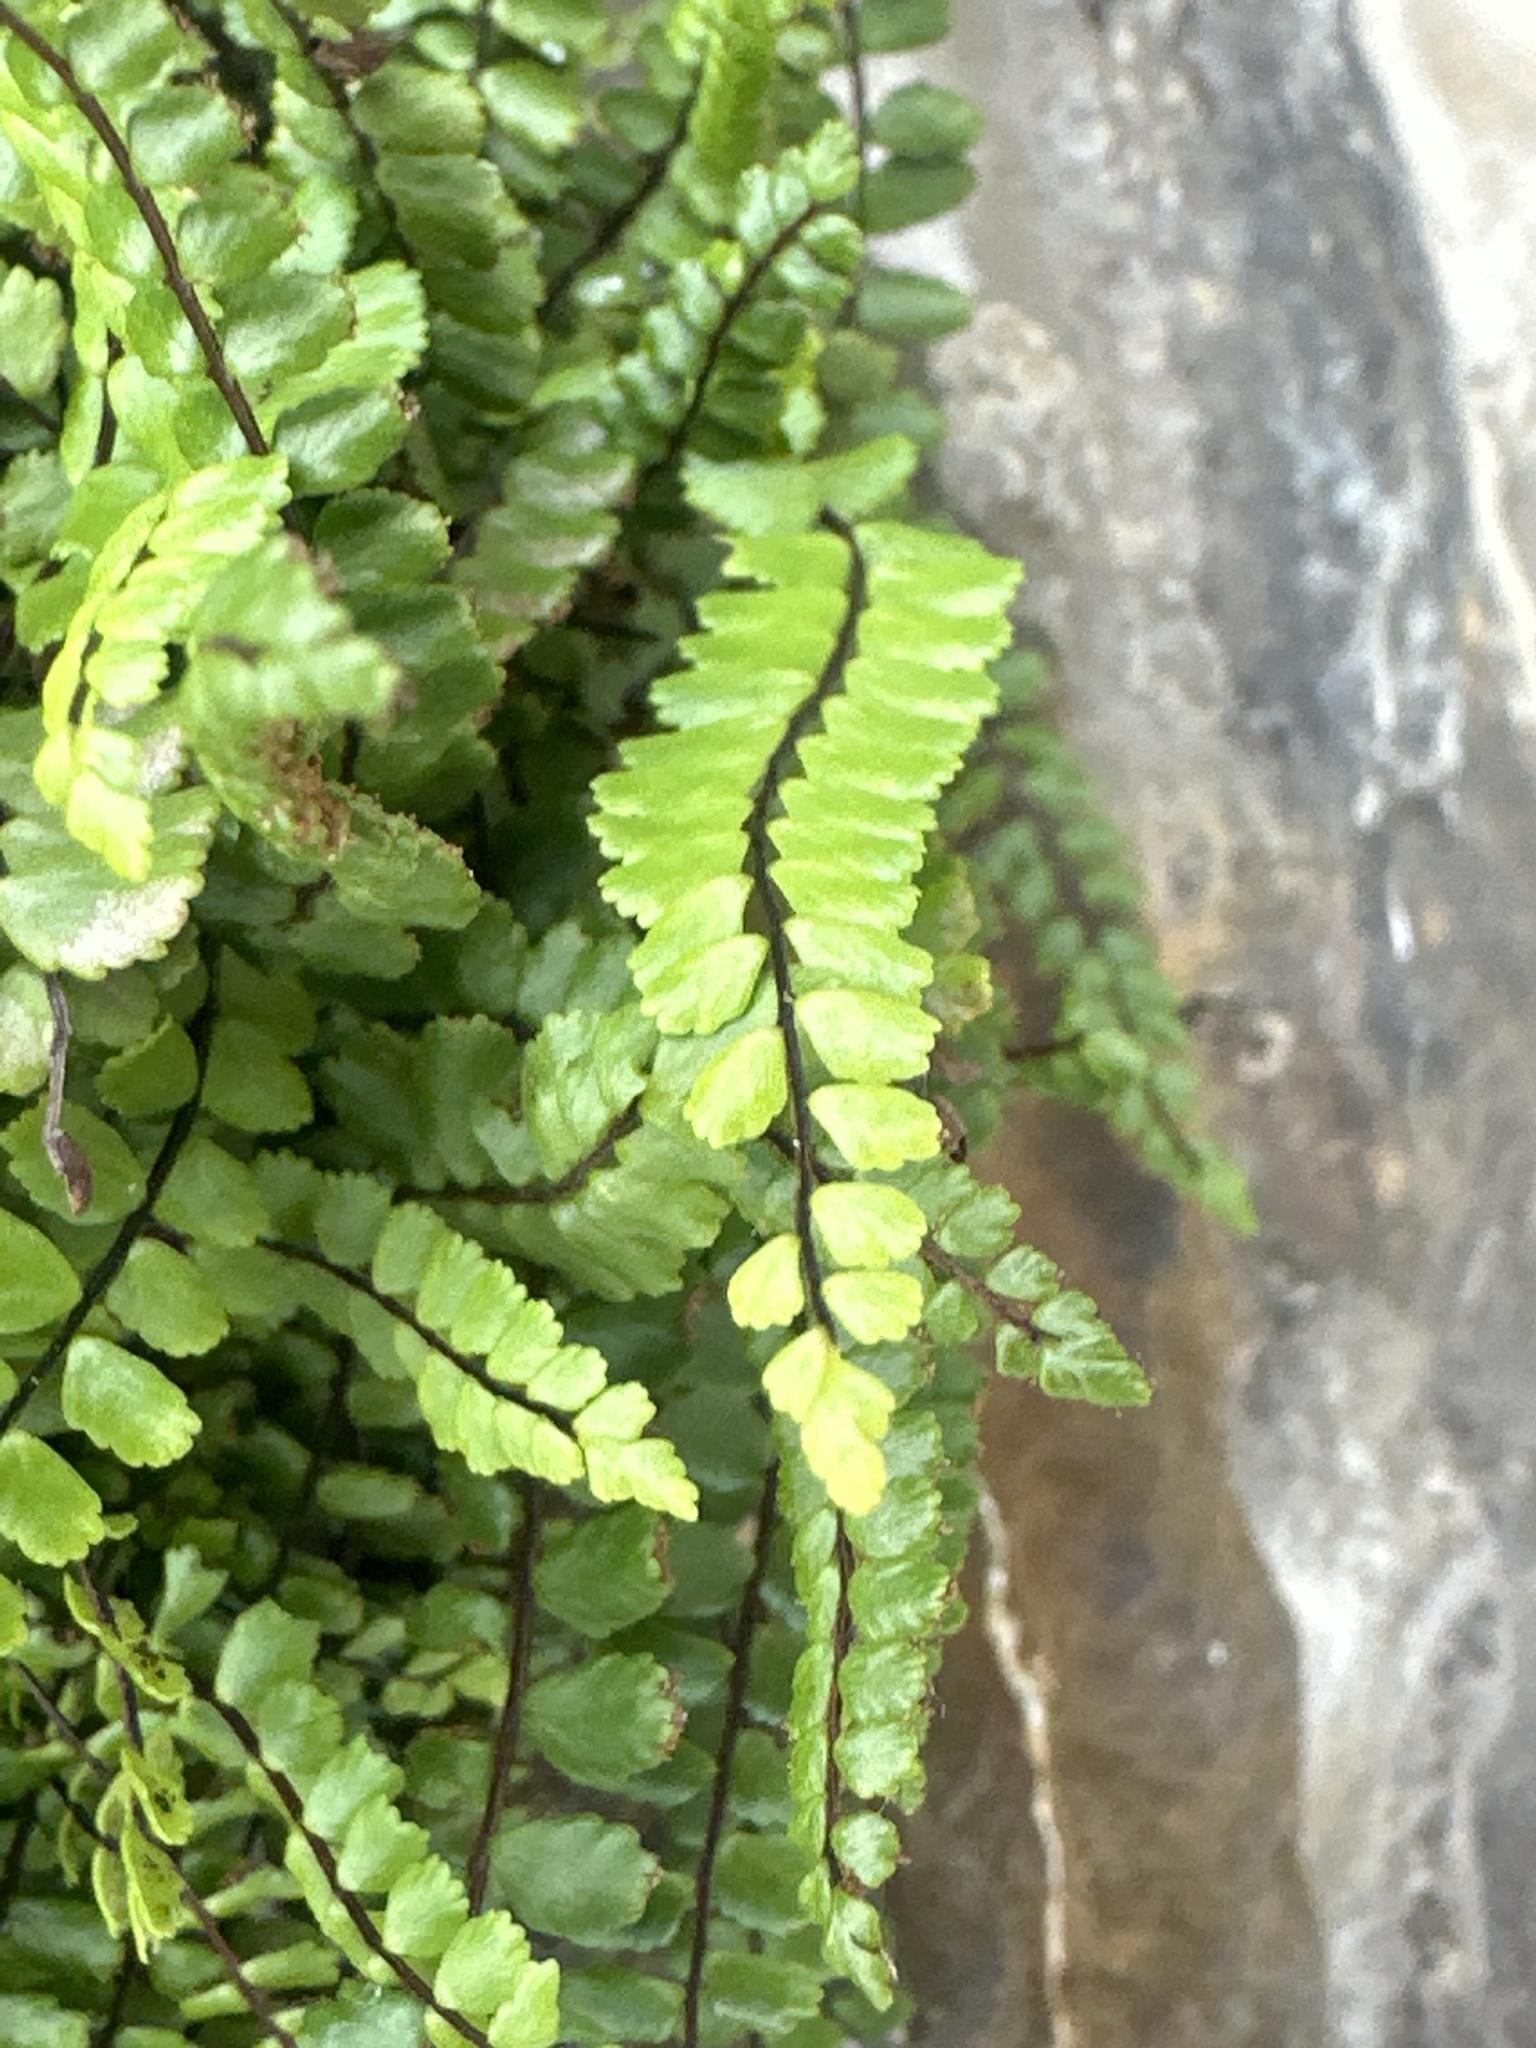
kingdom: Plantae
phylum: Tracheophyta
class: Polypodiopsida
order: Polypodiales
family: Aspleniaceae
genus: Asplenium
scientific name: Asplenium trichomanes
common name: Maidenhair spleenwort
